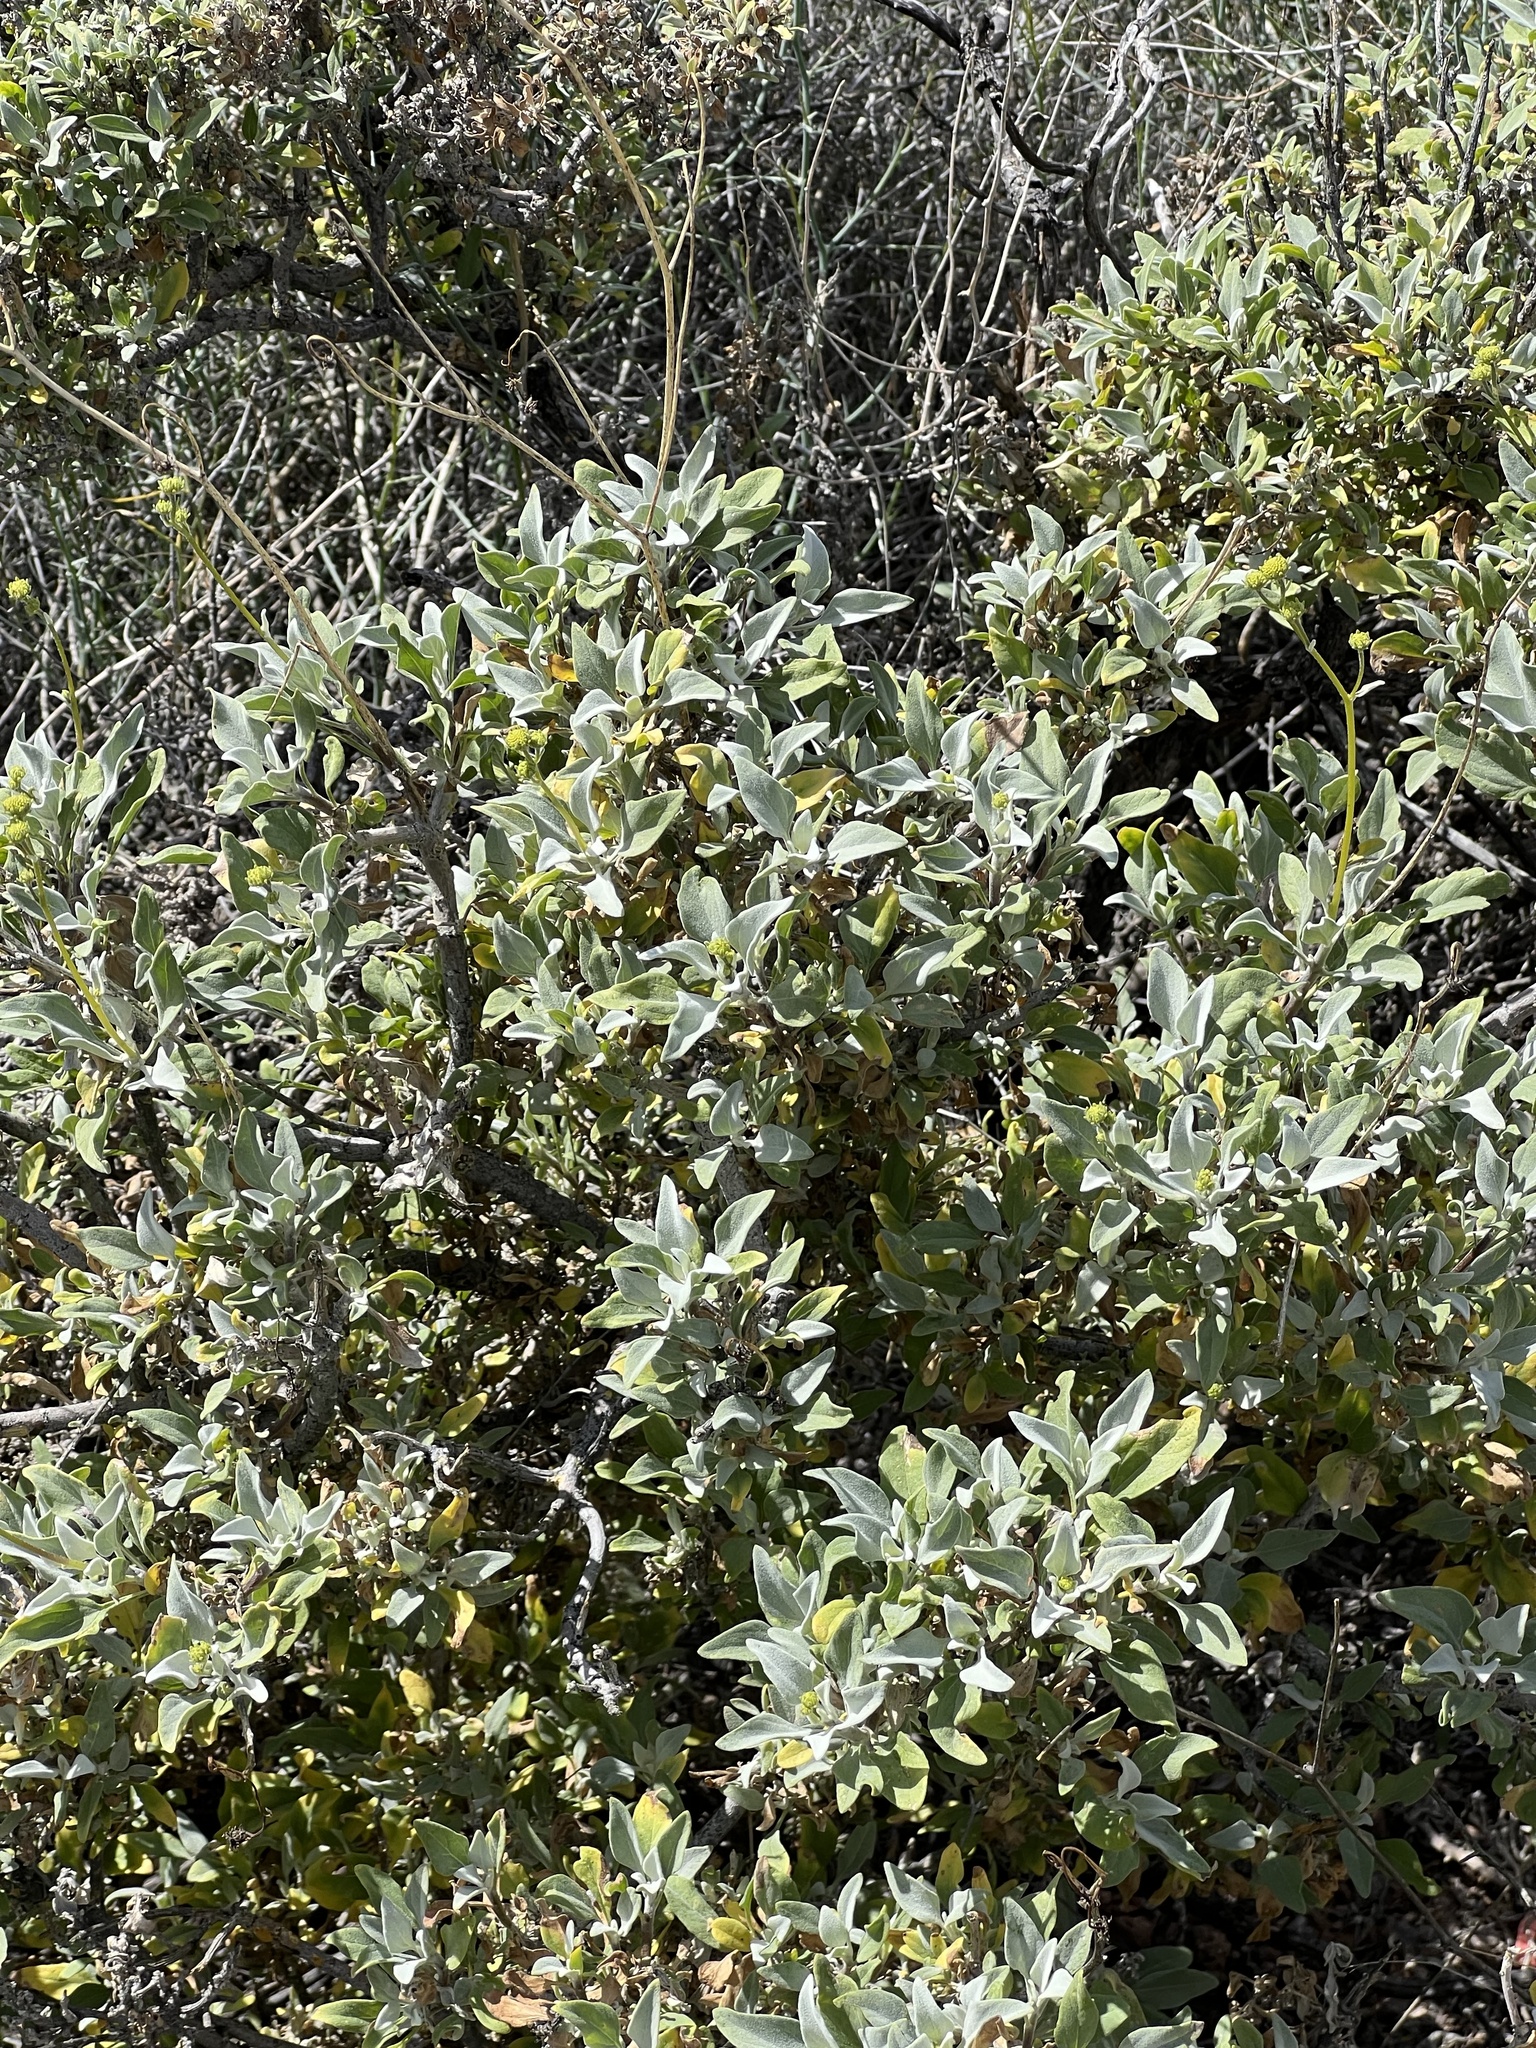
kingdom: Plantae
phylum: Tracheophyta
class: Magnoliopsida
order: Asterales
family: Asteraceae
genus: Encelia
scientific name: Encelia farinosa
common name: Brittlebush
